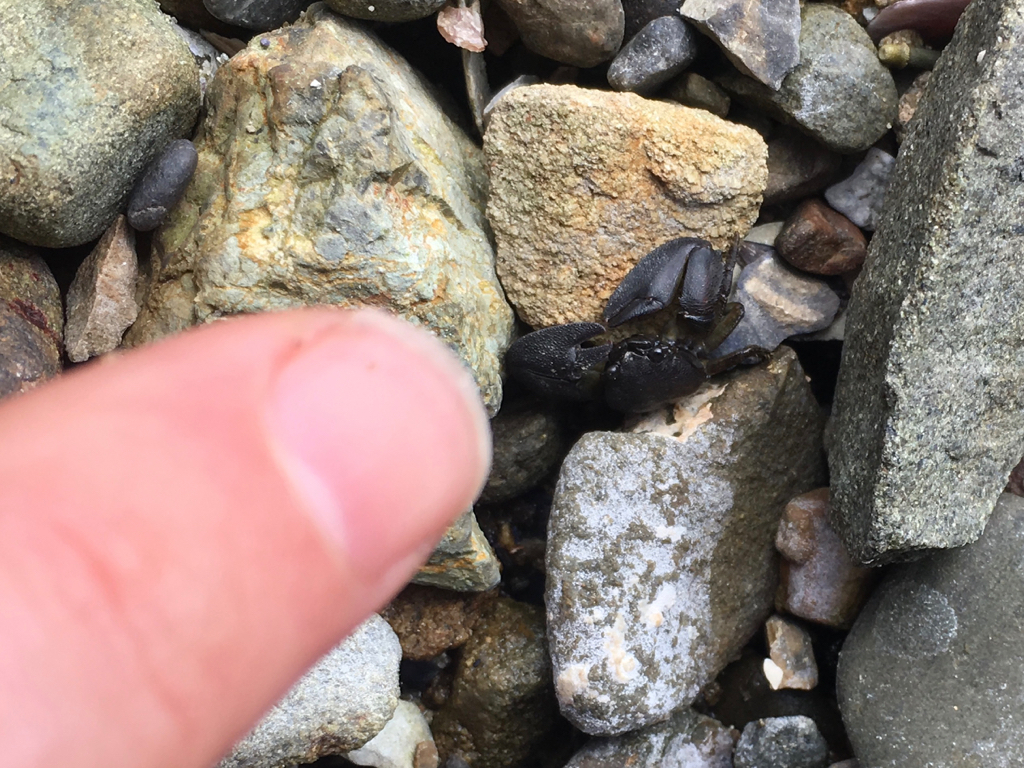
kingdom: Animalia
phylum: Arthropoda
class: Malacostraca
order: Decapoda
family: Porcellanidae
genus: Petrolisthes
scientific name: Petrolisthes elongatus
